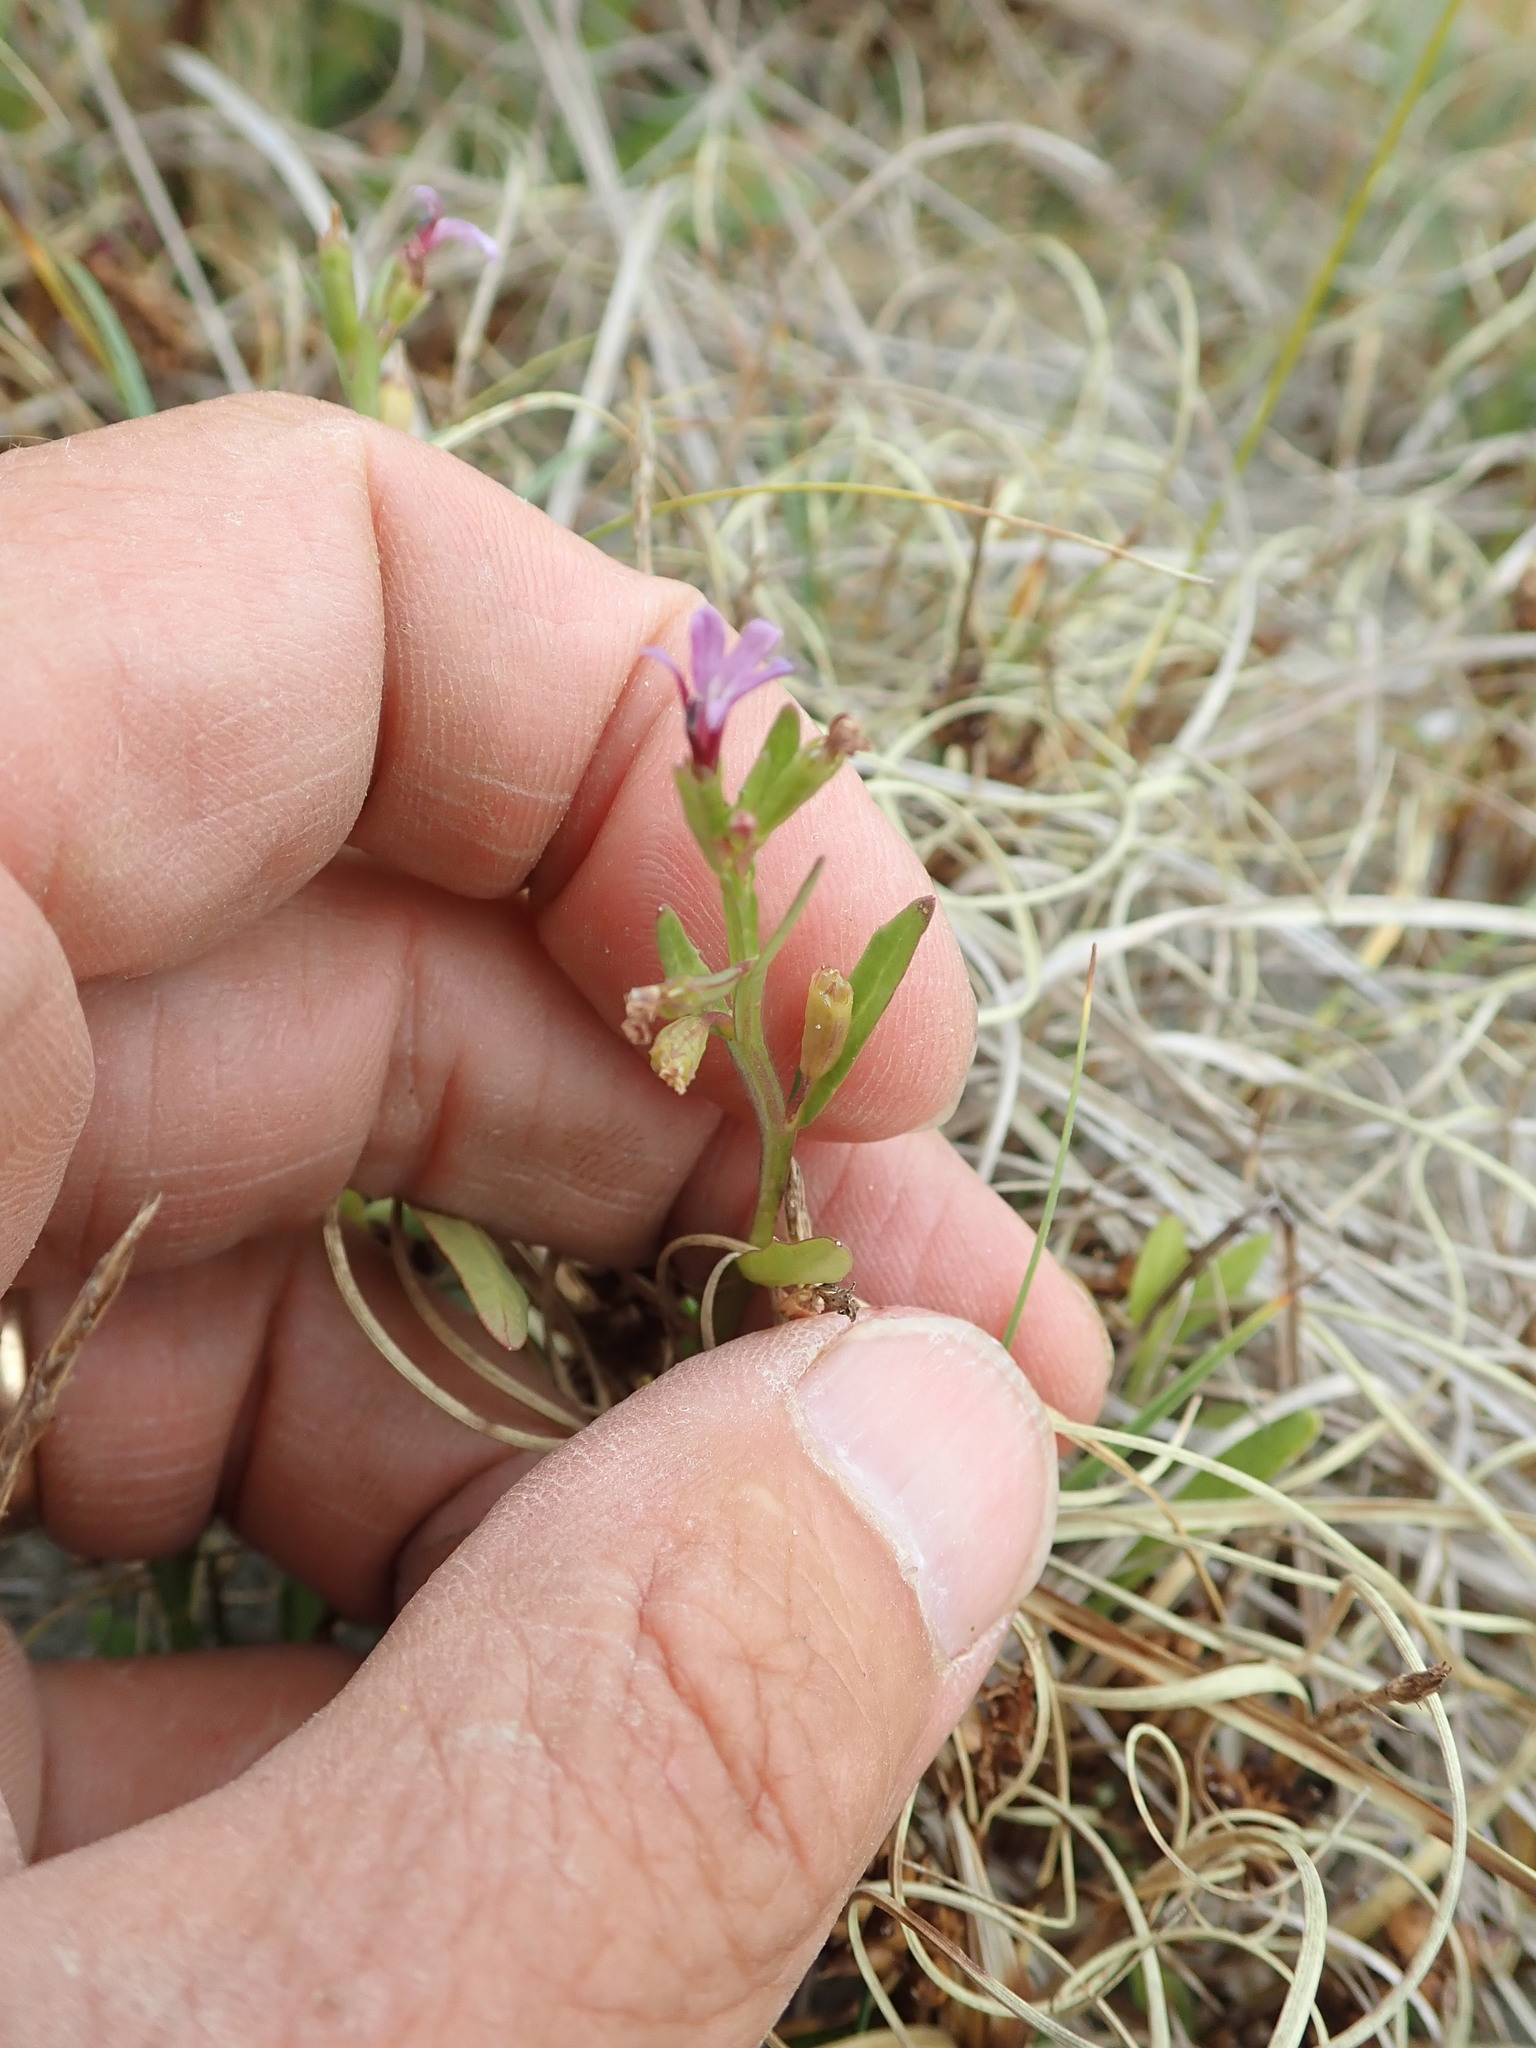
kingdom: Plantae
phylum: Tracheophyta
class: Magnoliopsida
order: Asterales
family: Campanulaceae
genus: Lobelia
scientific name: Lobelia anceps
